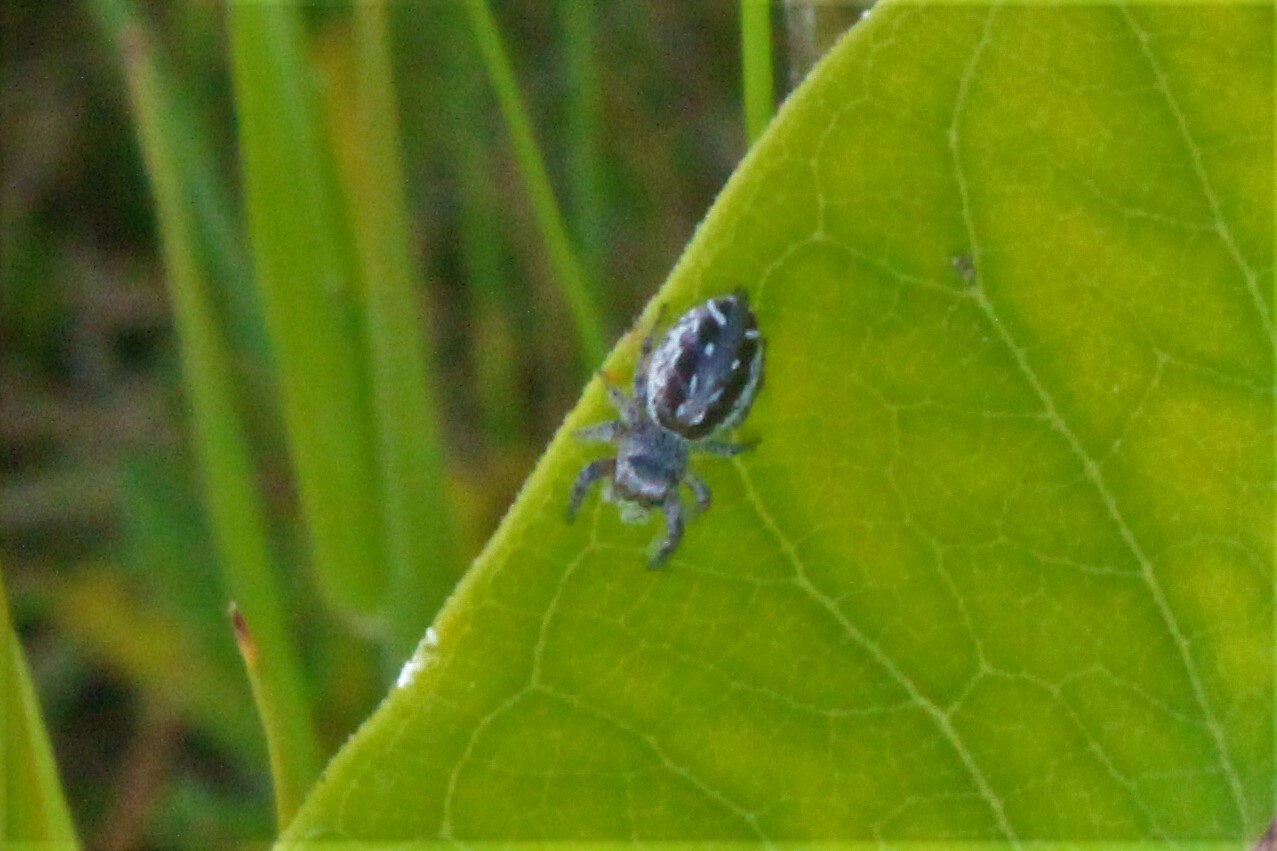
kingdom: Animalia
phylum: Arthropoda
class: Arachnida
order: Araneae
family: Salticidae
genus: Eris
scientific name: Eris militaris
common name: Bronze jumper
